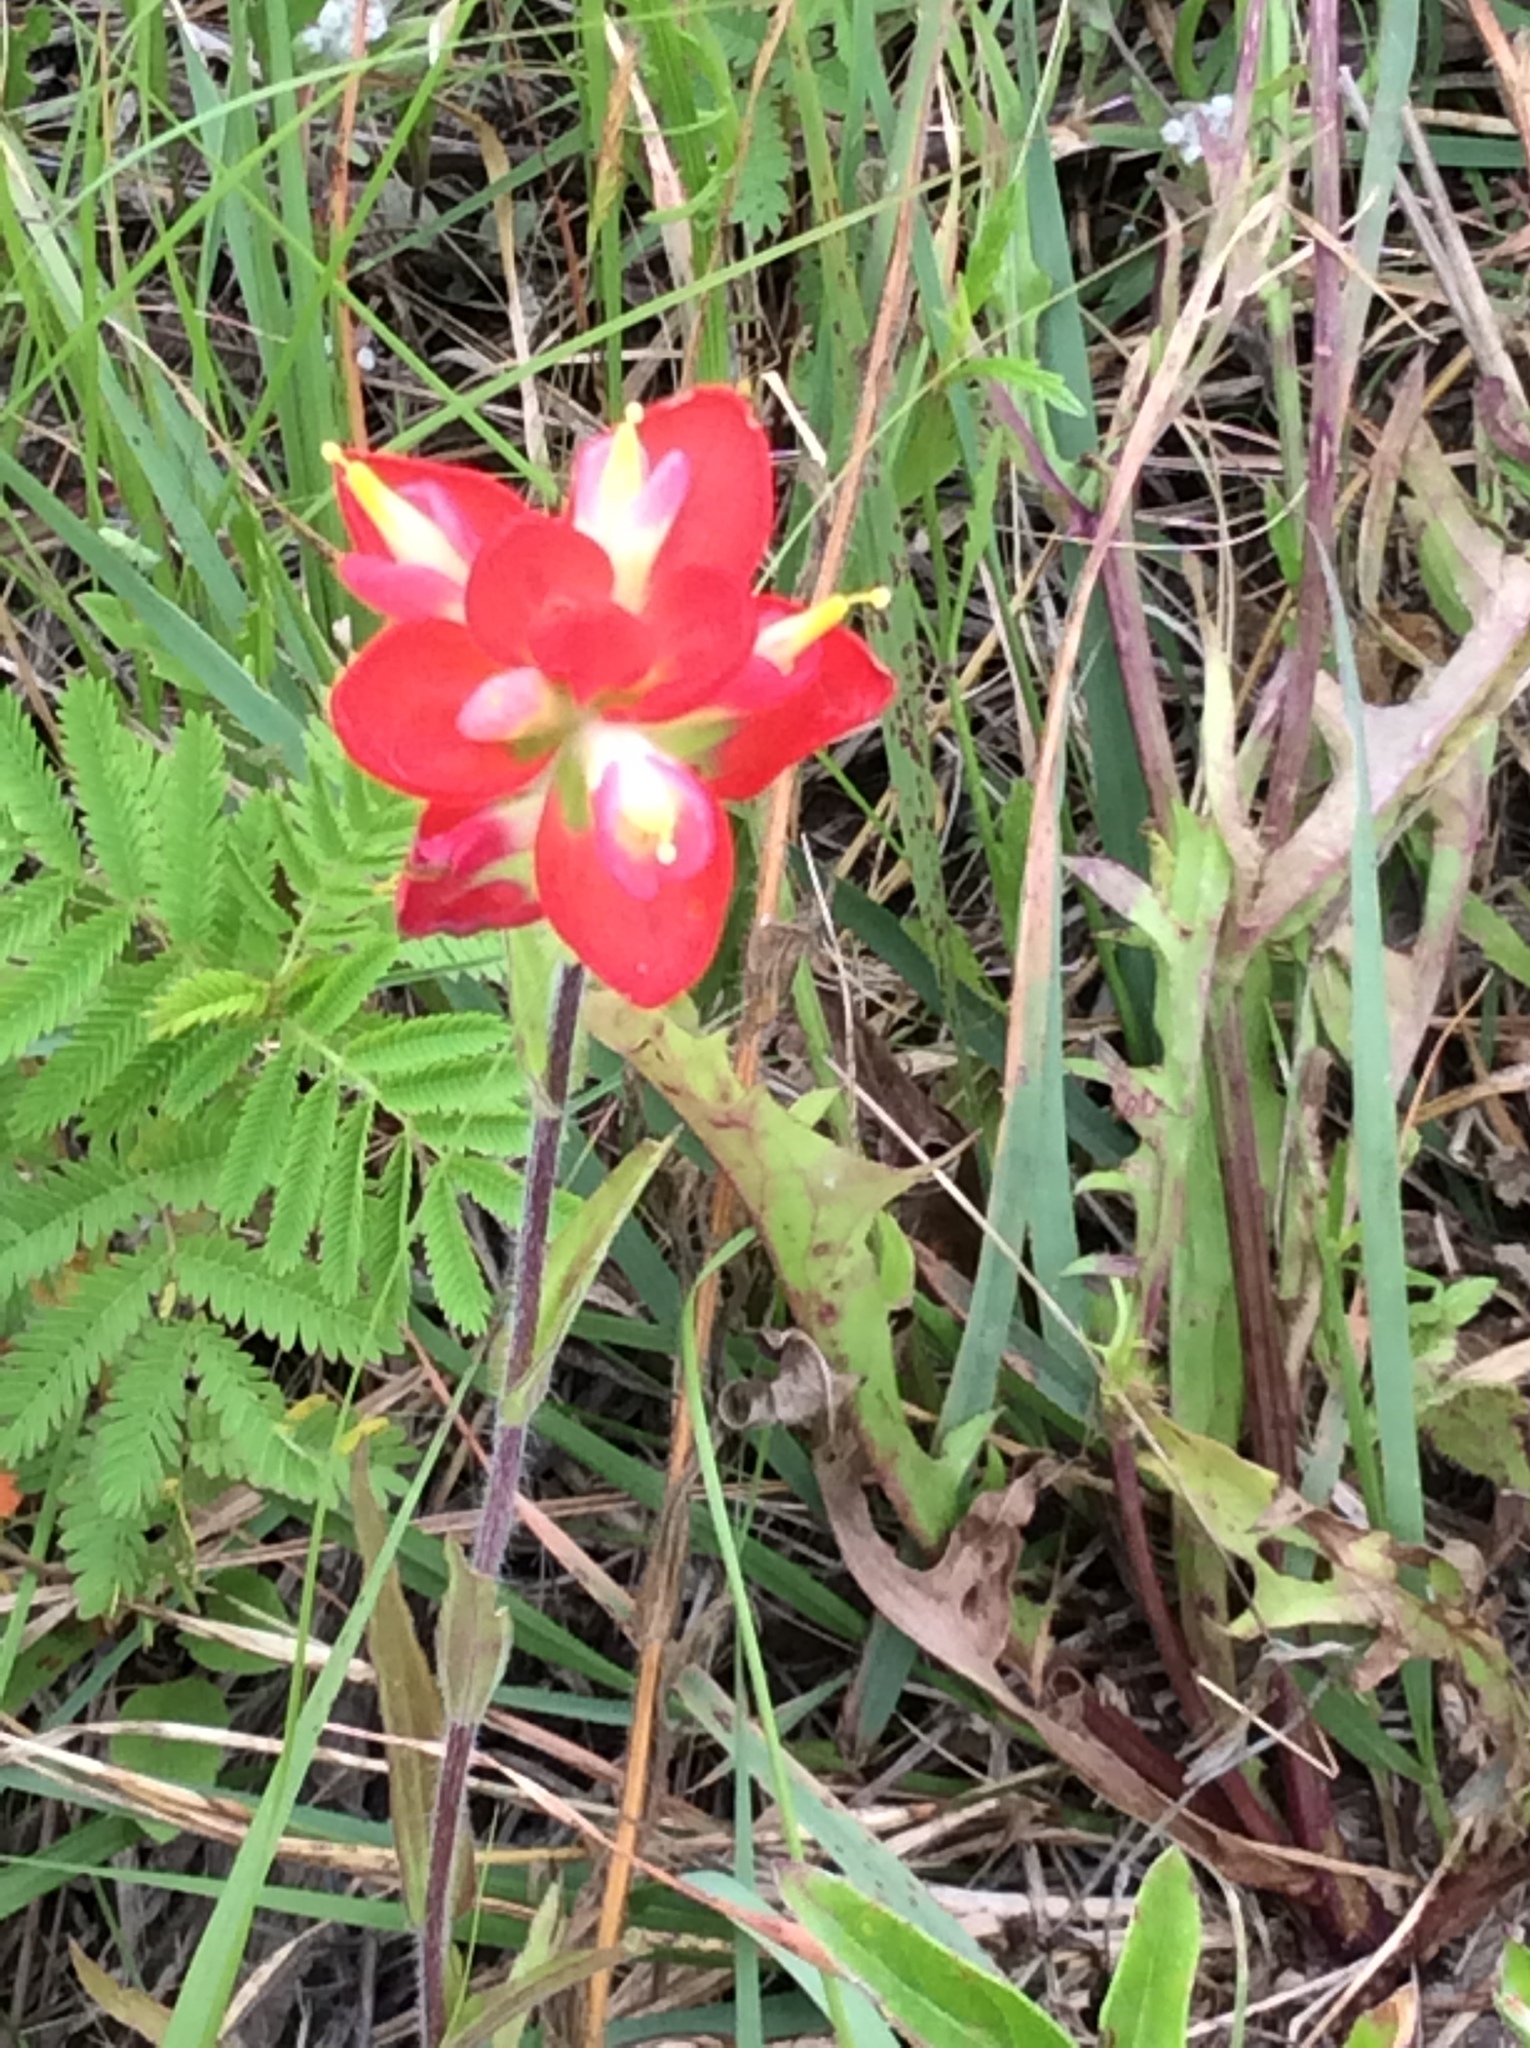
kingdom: Plantae
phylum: Tracheophyta
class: Magnoliopsida
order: Lamiales
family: Orobanchaceae
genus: Castilleja
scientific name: Castilleja indivisa
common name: Texas paintbrush
